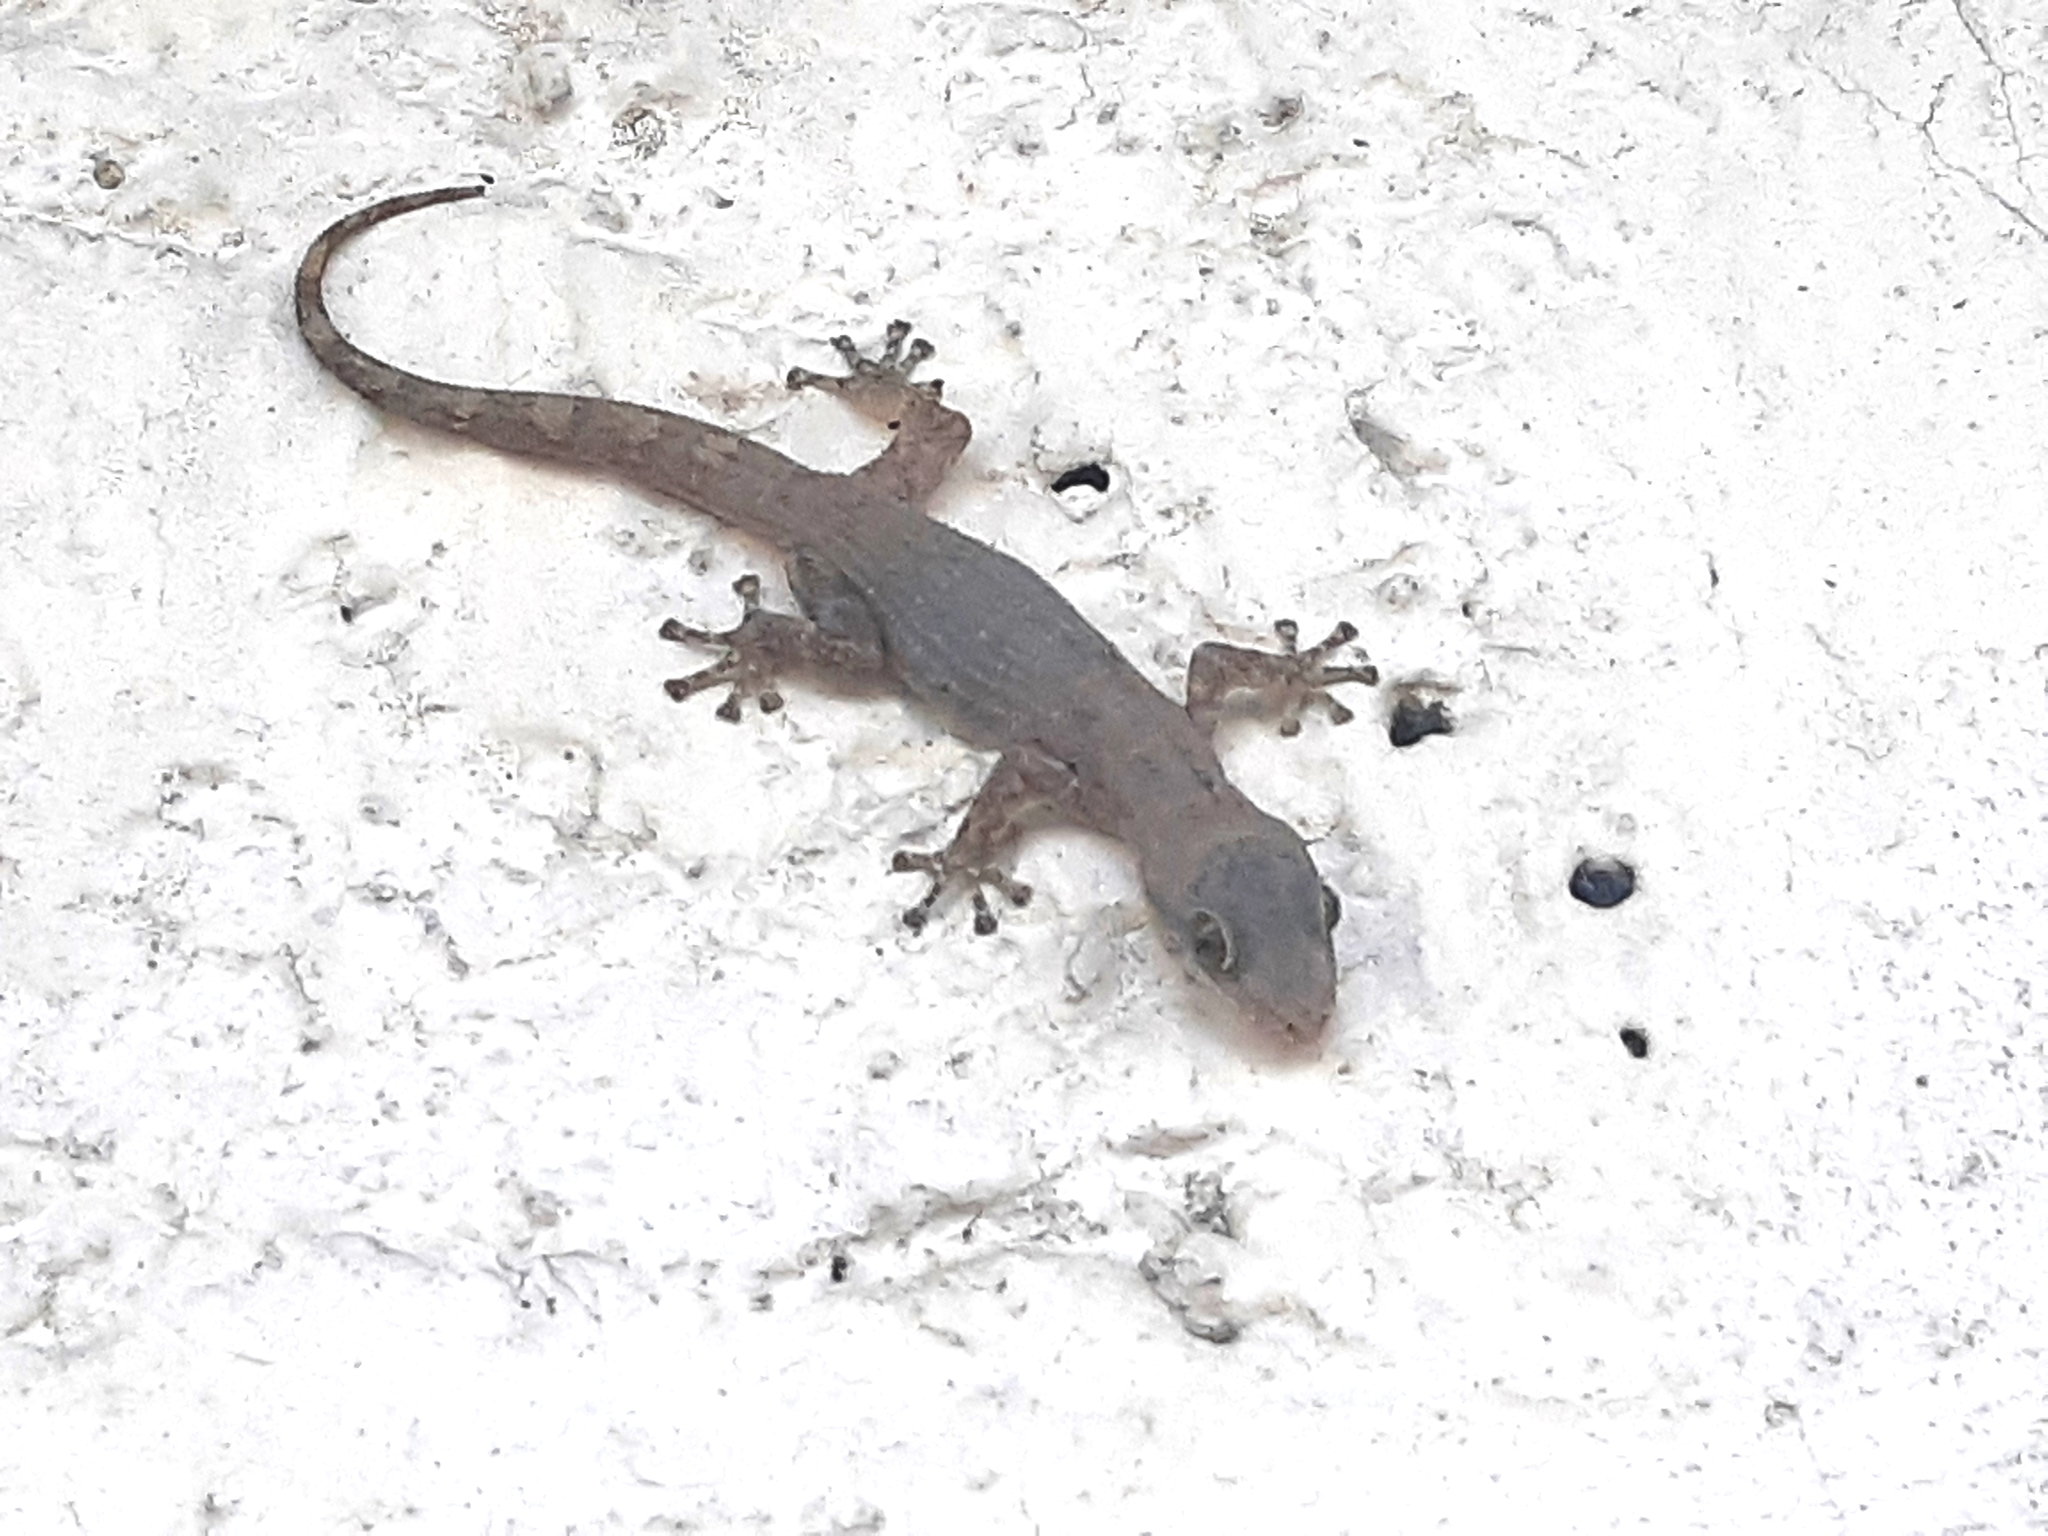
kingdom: Animalia
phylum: Chordata
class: Squamata
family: Phyllodactylidae
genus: Phyllodactylus
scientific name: Phyllodactylus reissii
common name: Peters' leaf-toed gecko
